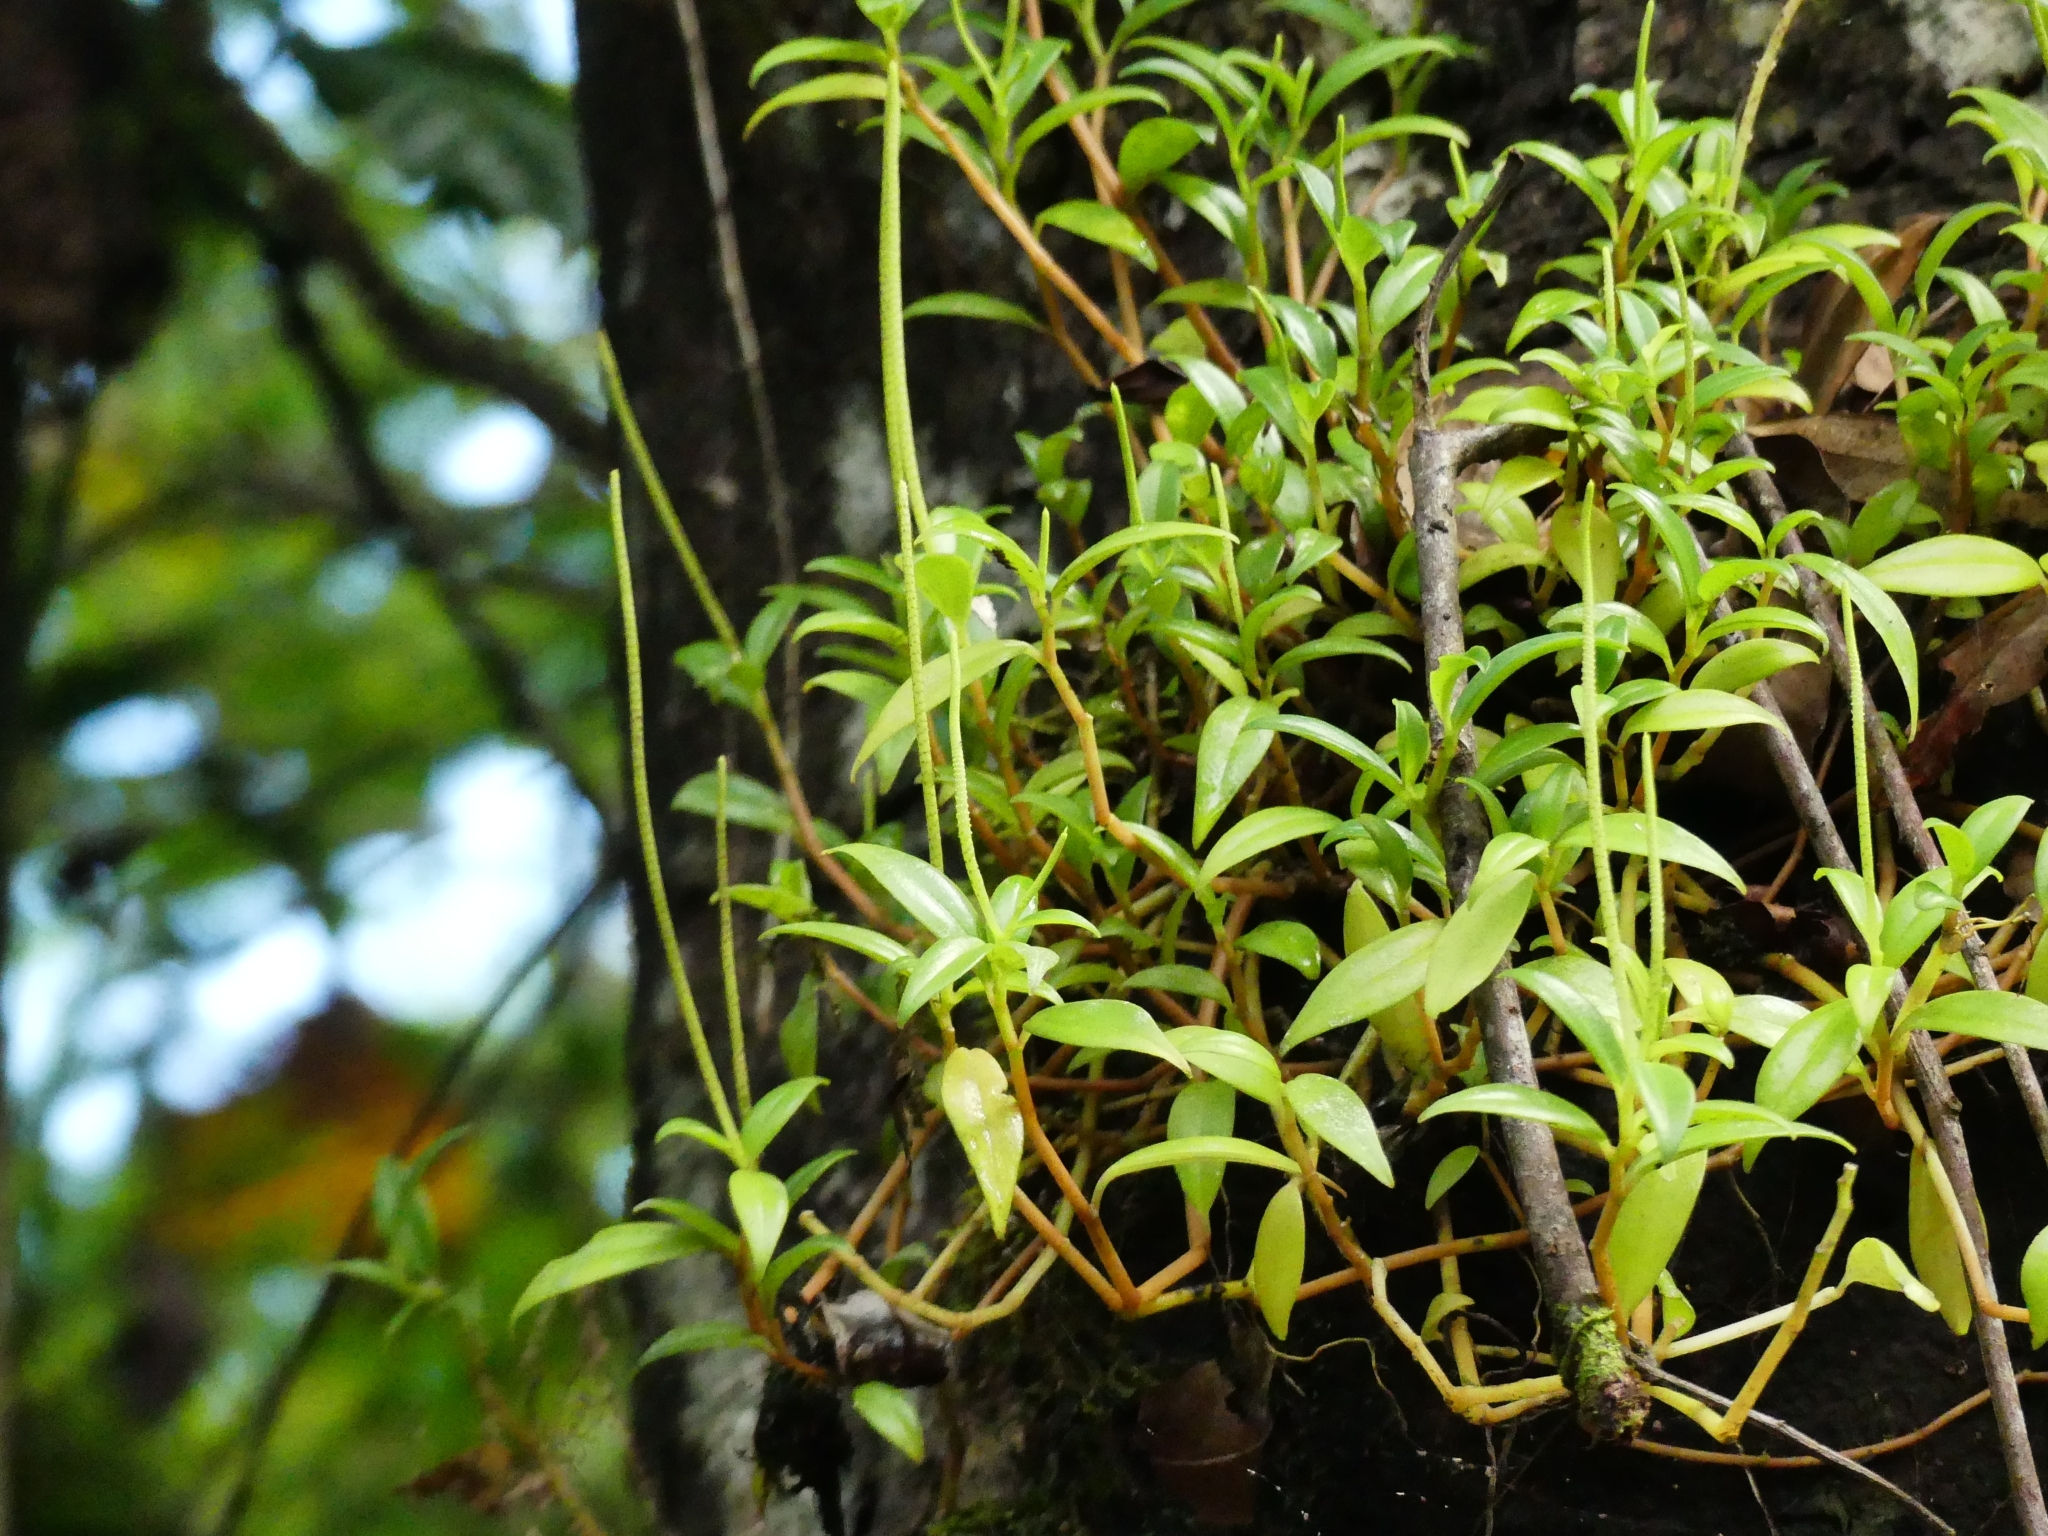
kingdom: Plantae
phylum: Tracheophyta
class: Magnoliopsida
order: Piperales
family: Piperaceae
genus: Peperomia
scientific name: Peperomia glabella
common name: Cypress peperomia
